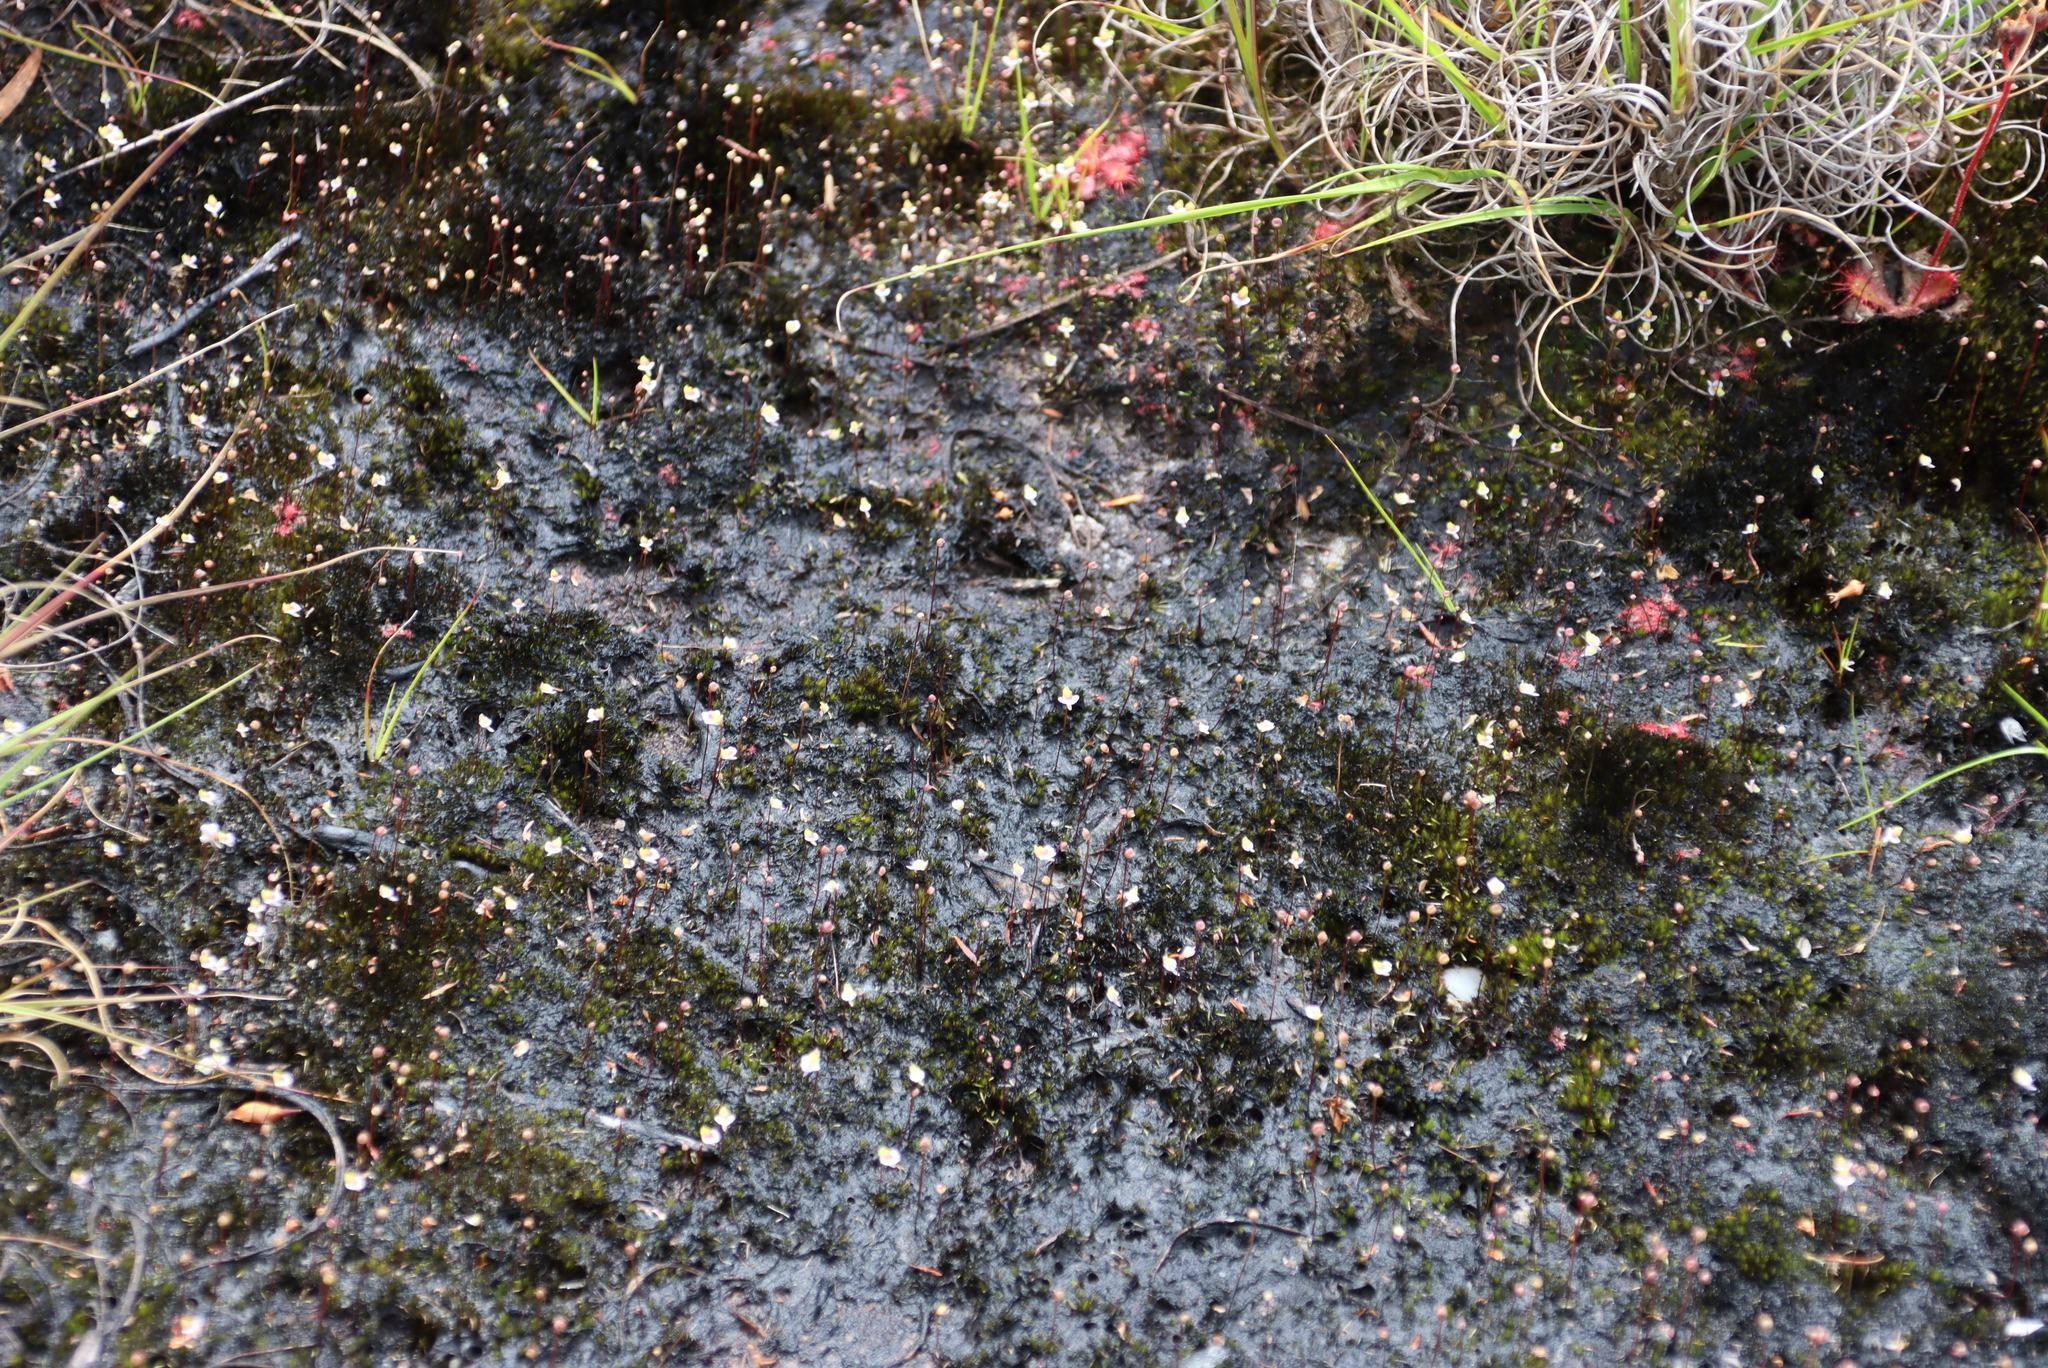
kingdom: Plantae
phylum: Tracheophyta
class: Magnoliopsida
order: Lamiales
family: Lentibulariaceae
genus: Utricularia
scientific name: Utricularia bisquamata
